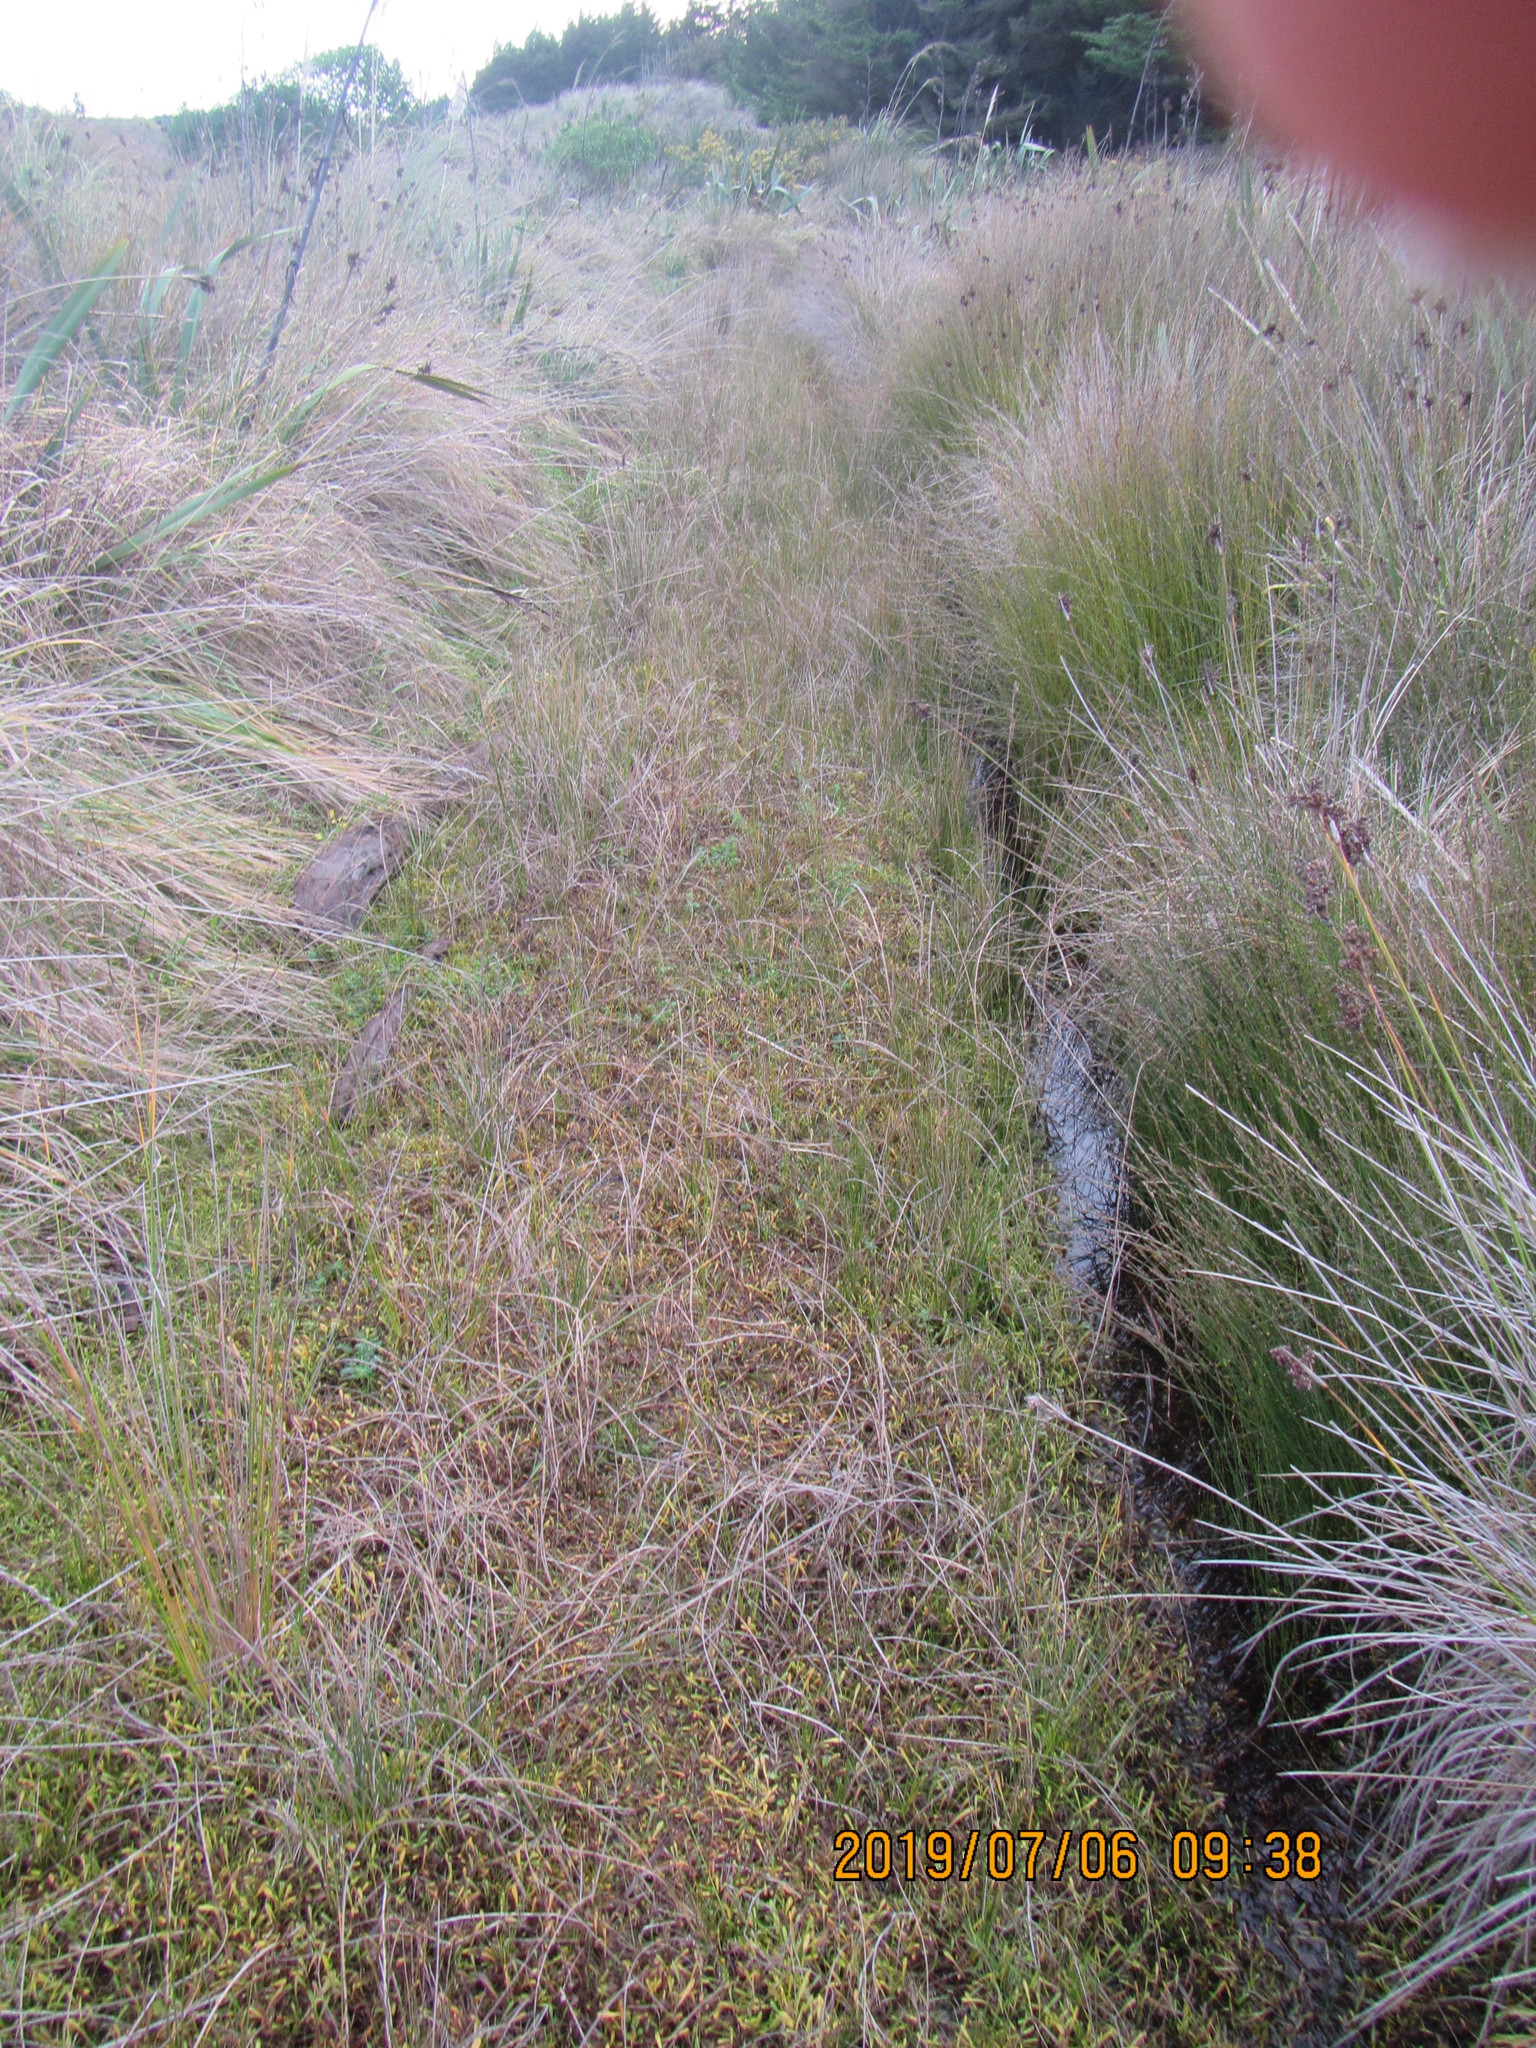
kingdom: Plantae
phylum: Tracheophyta
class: Magnoliopsida
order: Asterales
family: Goodeniaceae
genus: Goodenia
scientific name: Goodenia radicans
